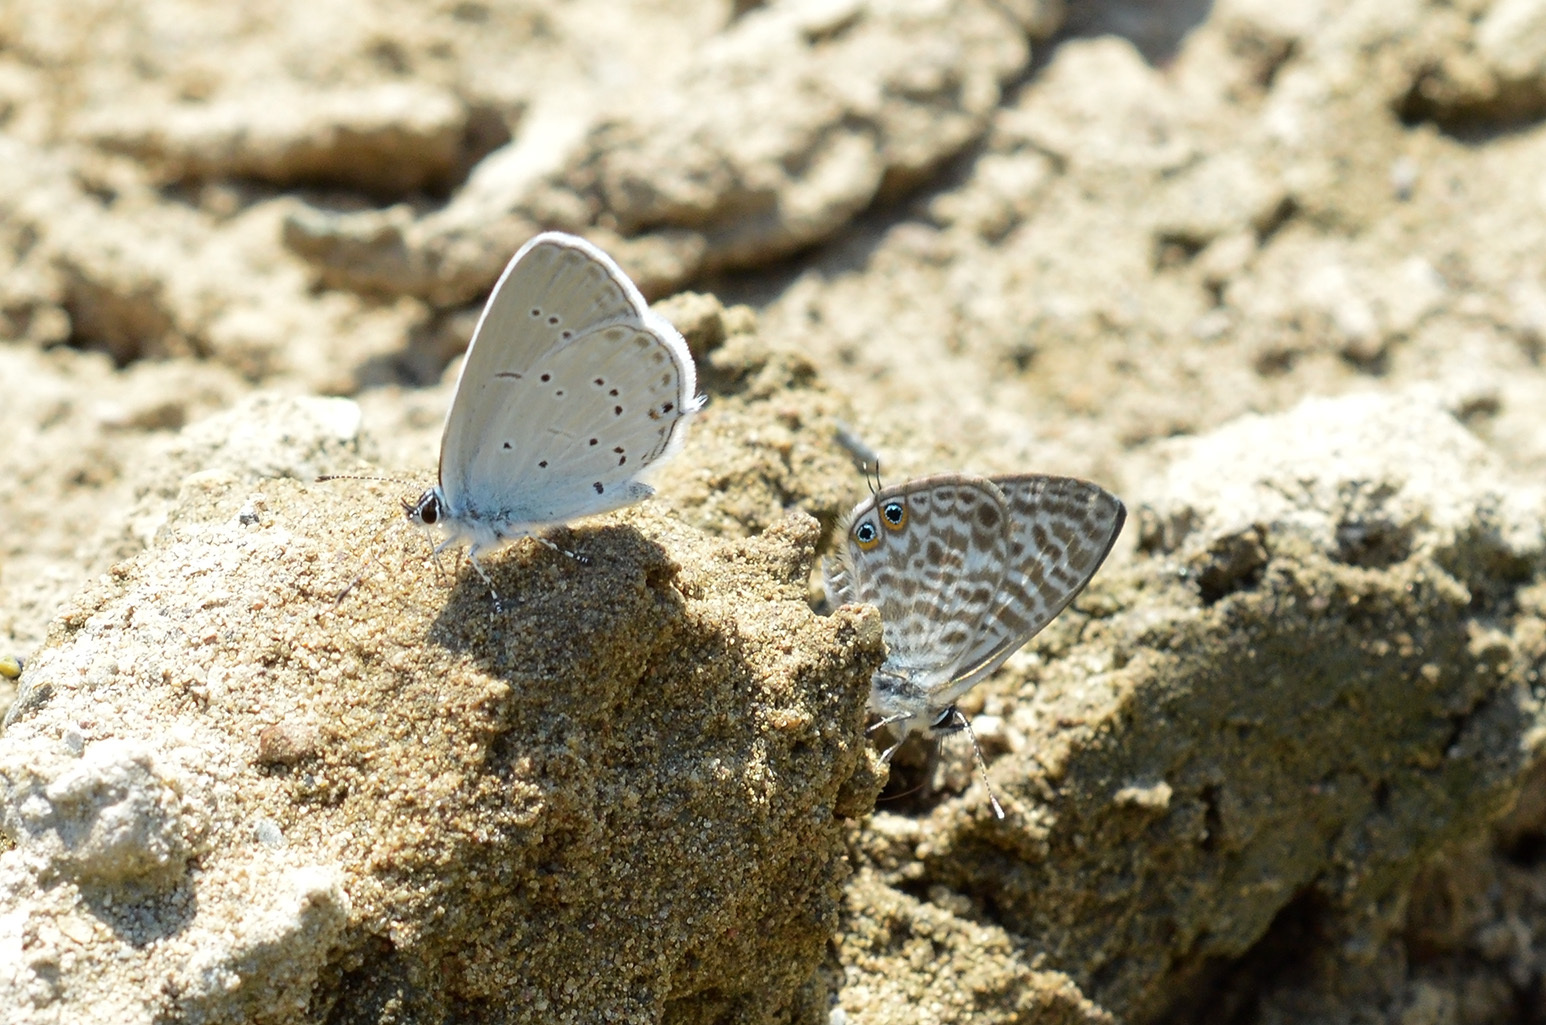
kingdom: Animalia
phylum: Arthropoda
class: Insecta
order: Lepidoptera
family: Lycaenidae
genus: Leptotes
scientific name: Leptotes pirithous
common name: Lang's short-tailed blue
